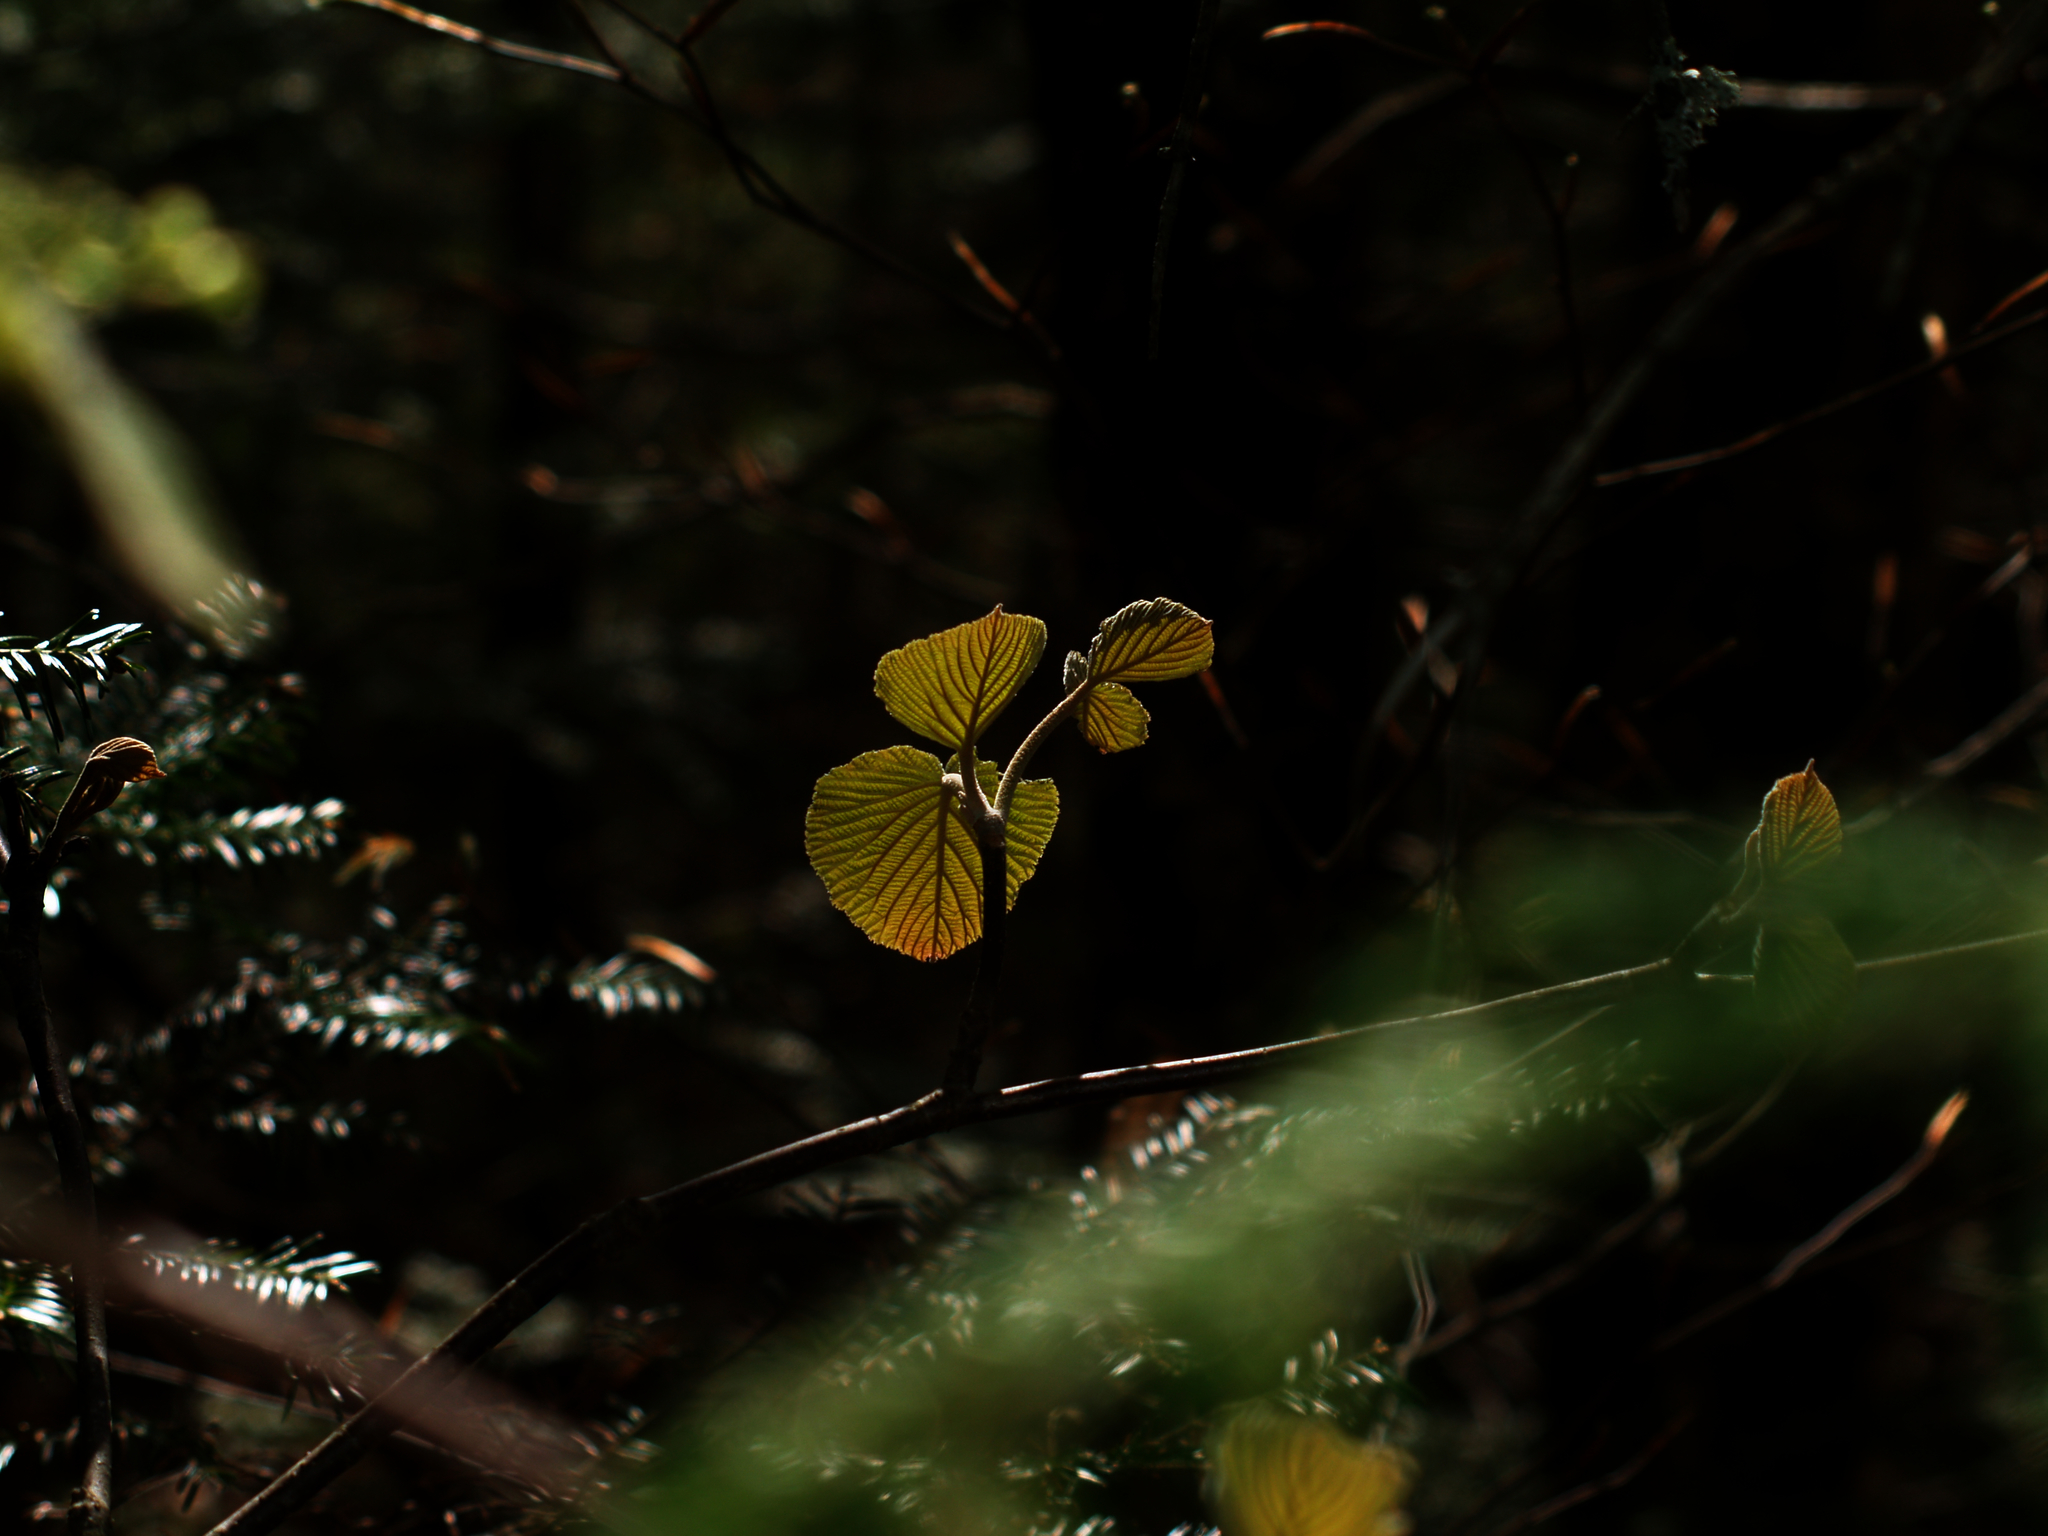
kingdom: Plantae
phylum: Tracheophyta
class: Magnoliopsida
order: Dipsacales
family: Viburnaceae
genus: Viburnum
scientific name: Viburnum lantanoides
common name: Hobblebush
